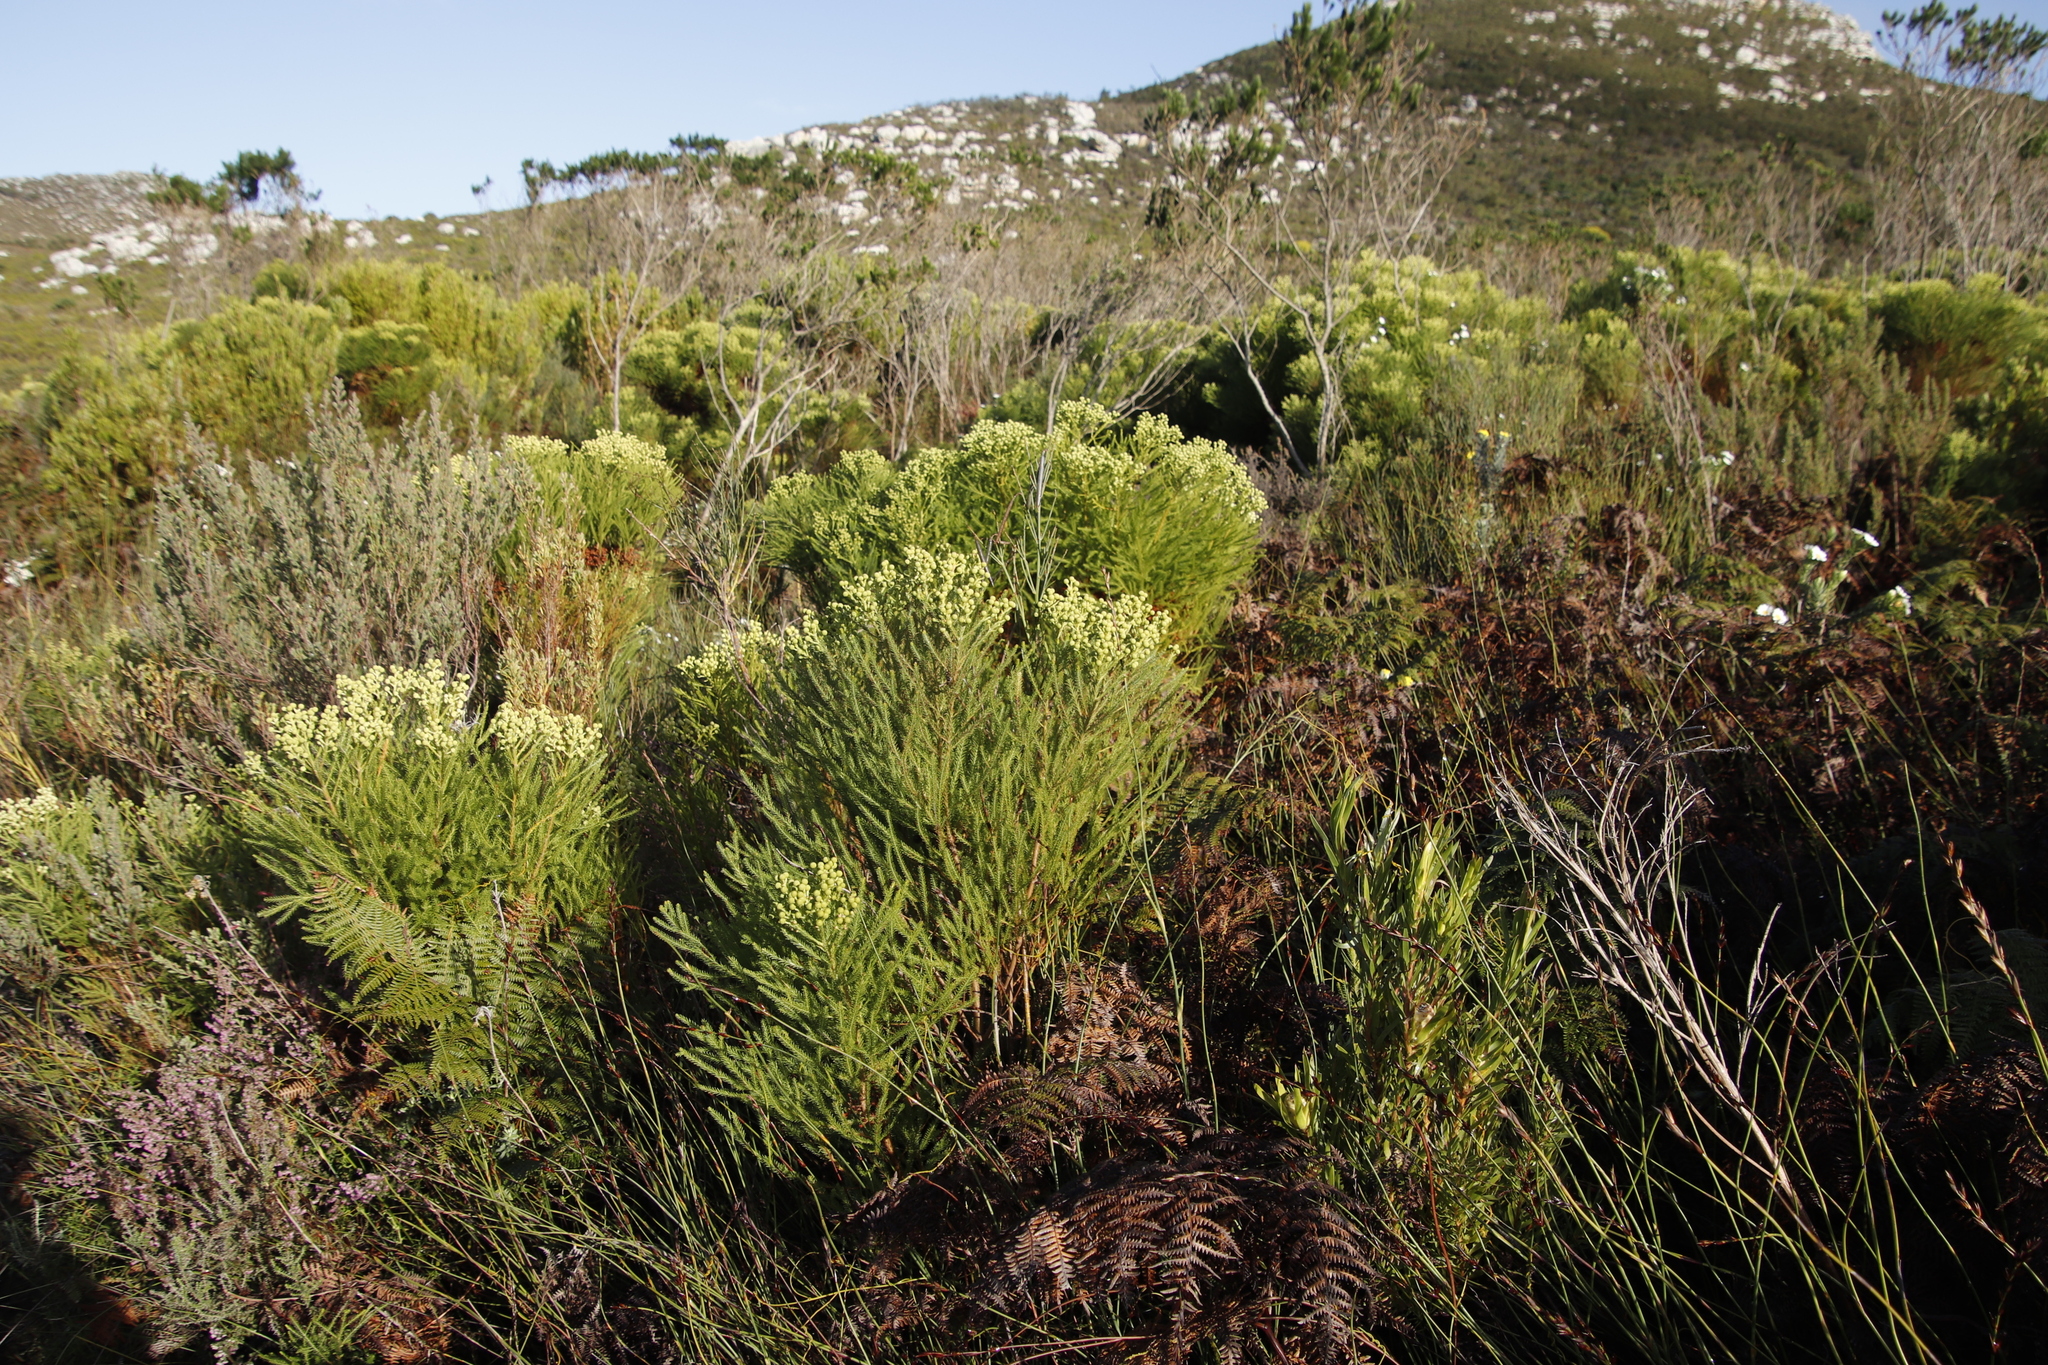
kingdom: Plantae
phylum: Tracheophyta
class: Magnoliopsida
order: Bruniales
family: Bruniaceae
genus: Berzelia
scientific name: Berzelia lanuginosa
